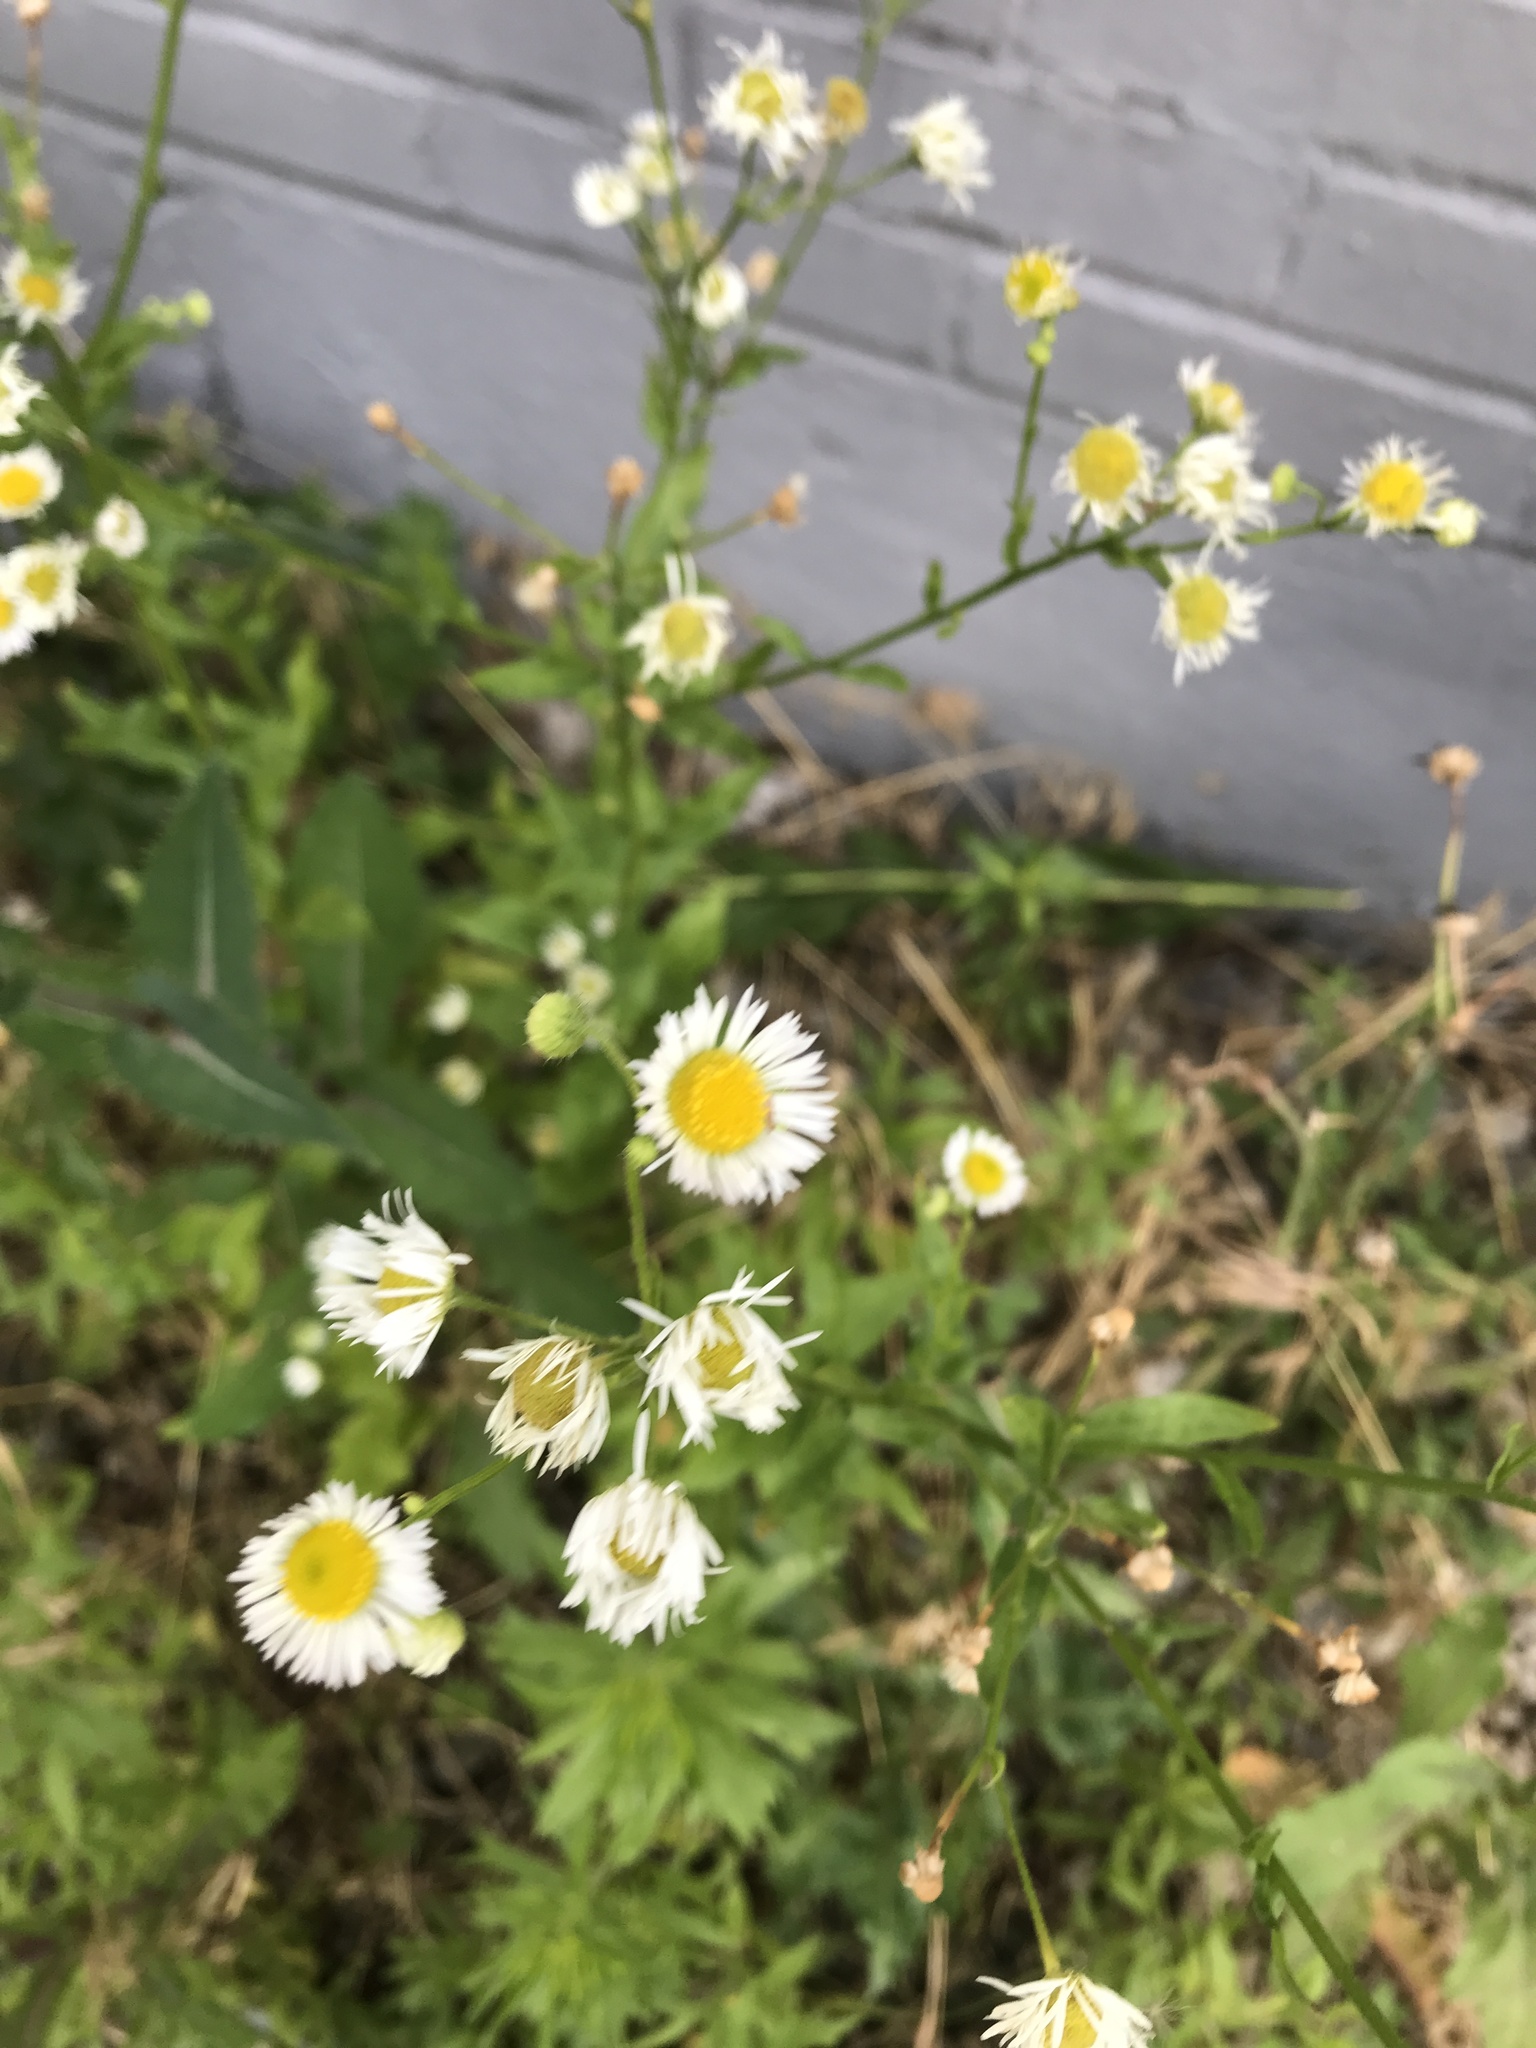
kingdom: Plantae
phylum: Tracheophyta
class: Magnoliopsida
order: Asterales
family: Asteraceae
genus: Erigeron
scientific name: Erigeron annuus
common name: Tall fleabane
